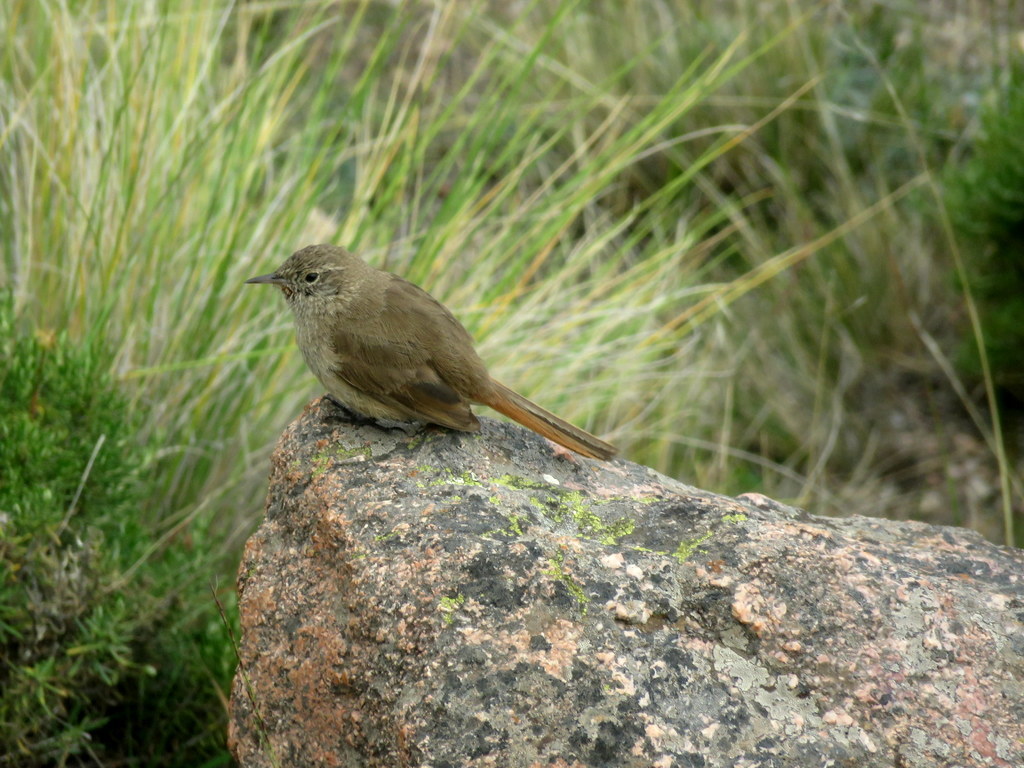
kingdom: Animalia
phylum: Chordata
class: Aves
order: Passeriformes
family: Furnariidae
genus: Asthenes
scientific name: Asthenes modesta
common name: Cordilleran canastero
